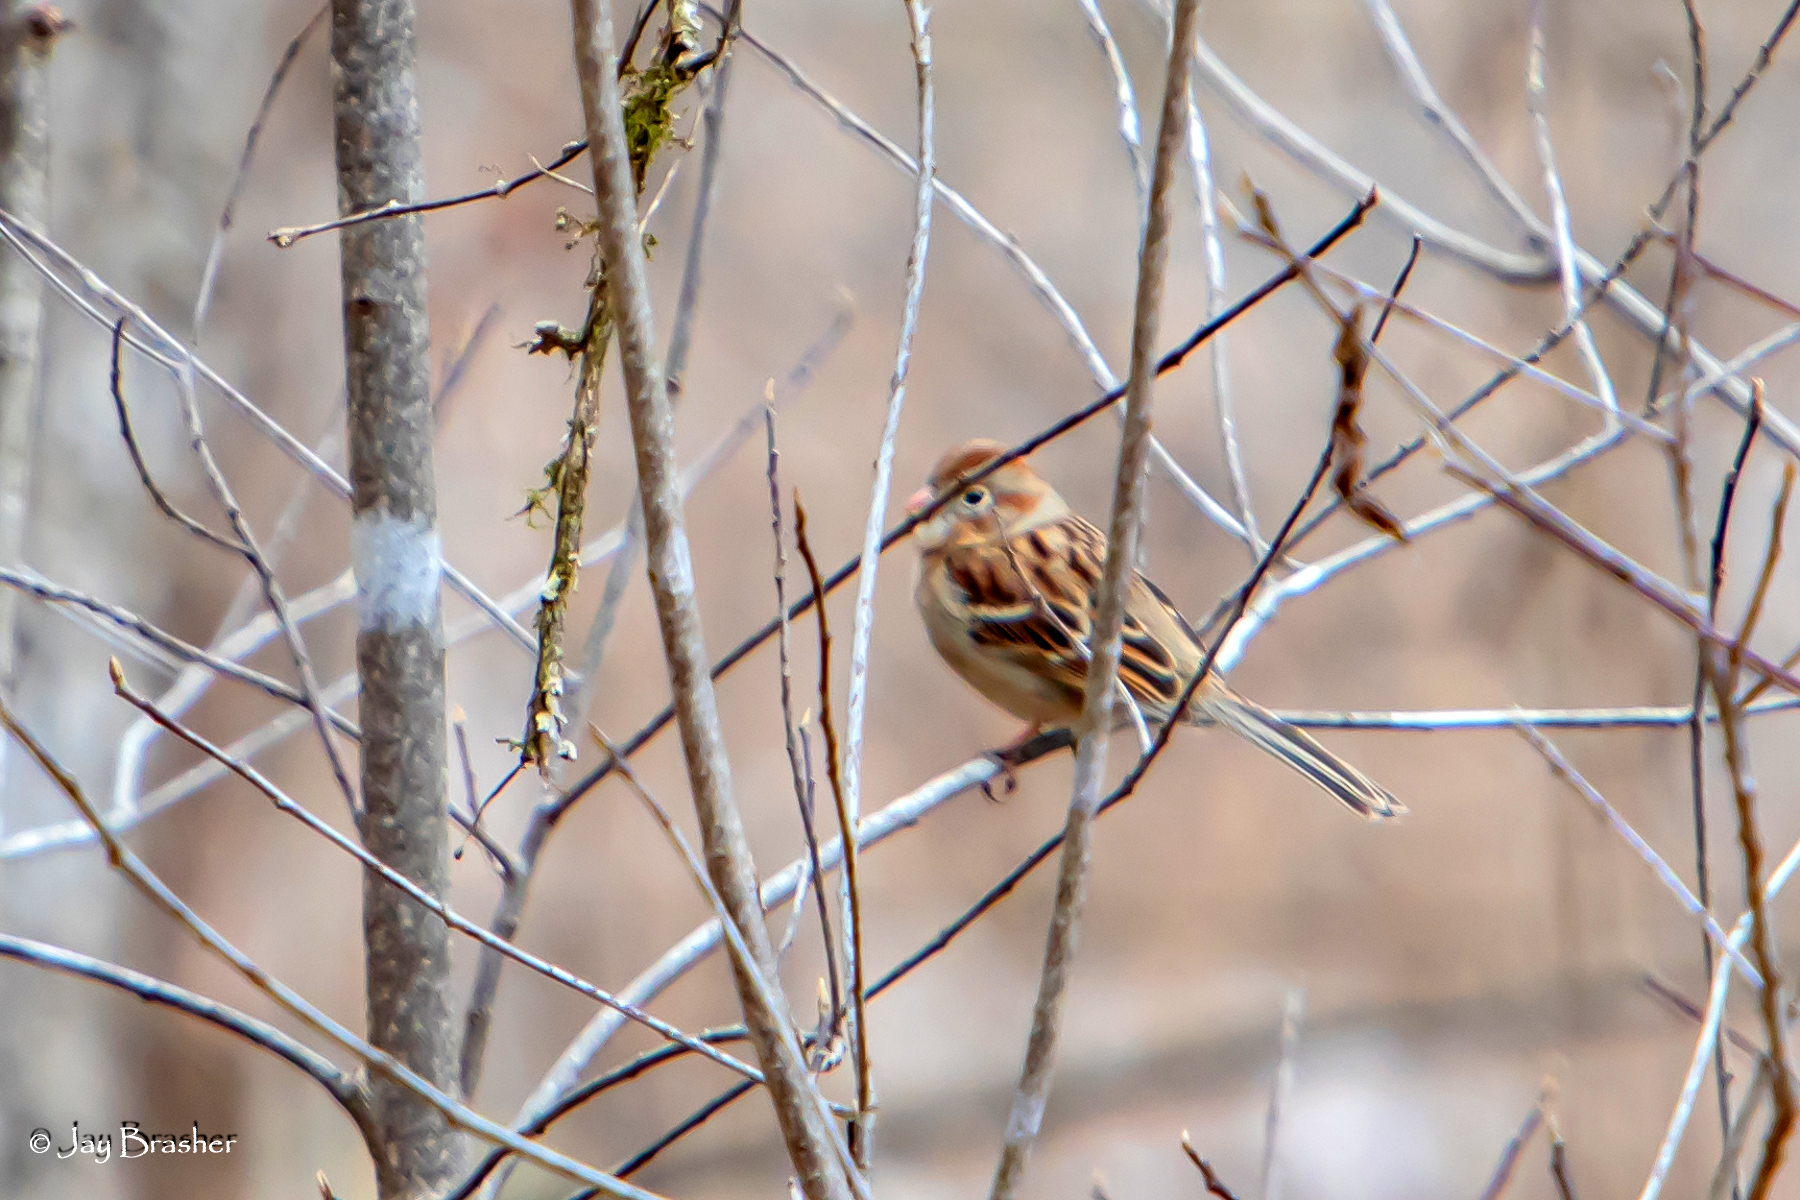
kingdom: Animalia
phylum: Chordata
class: Aves
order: Passeriformes
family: Passerellidae
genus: Spizella
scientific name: Spizella pusilla
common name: Field sparrow
